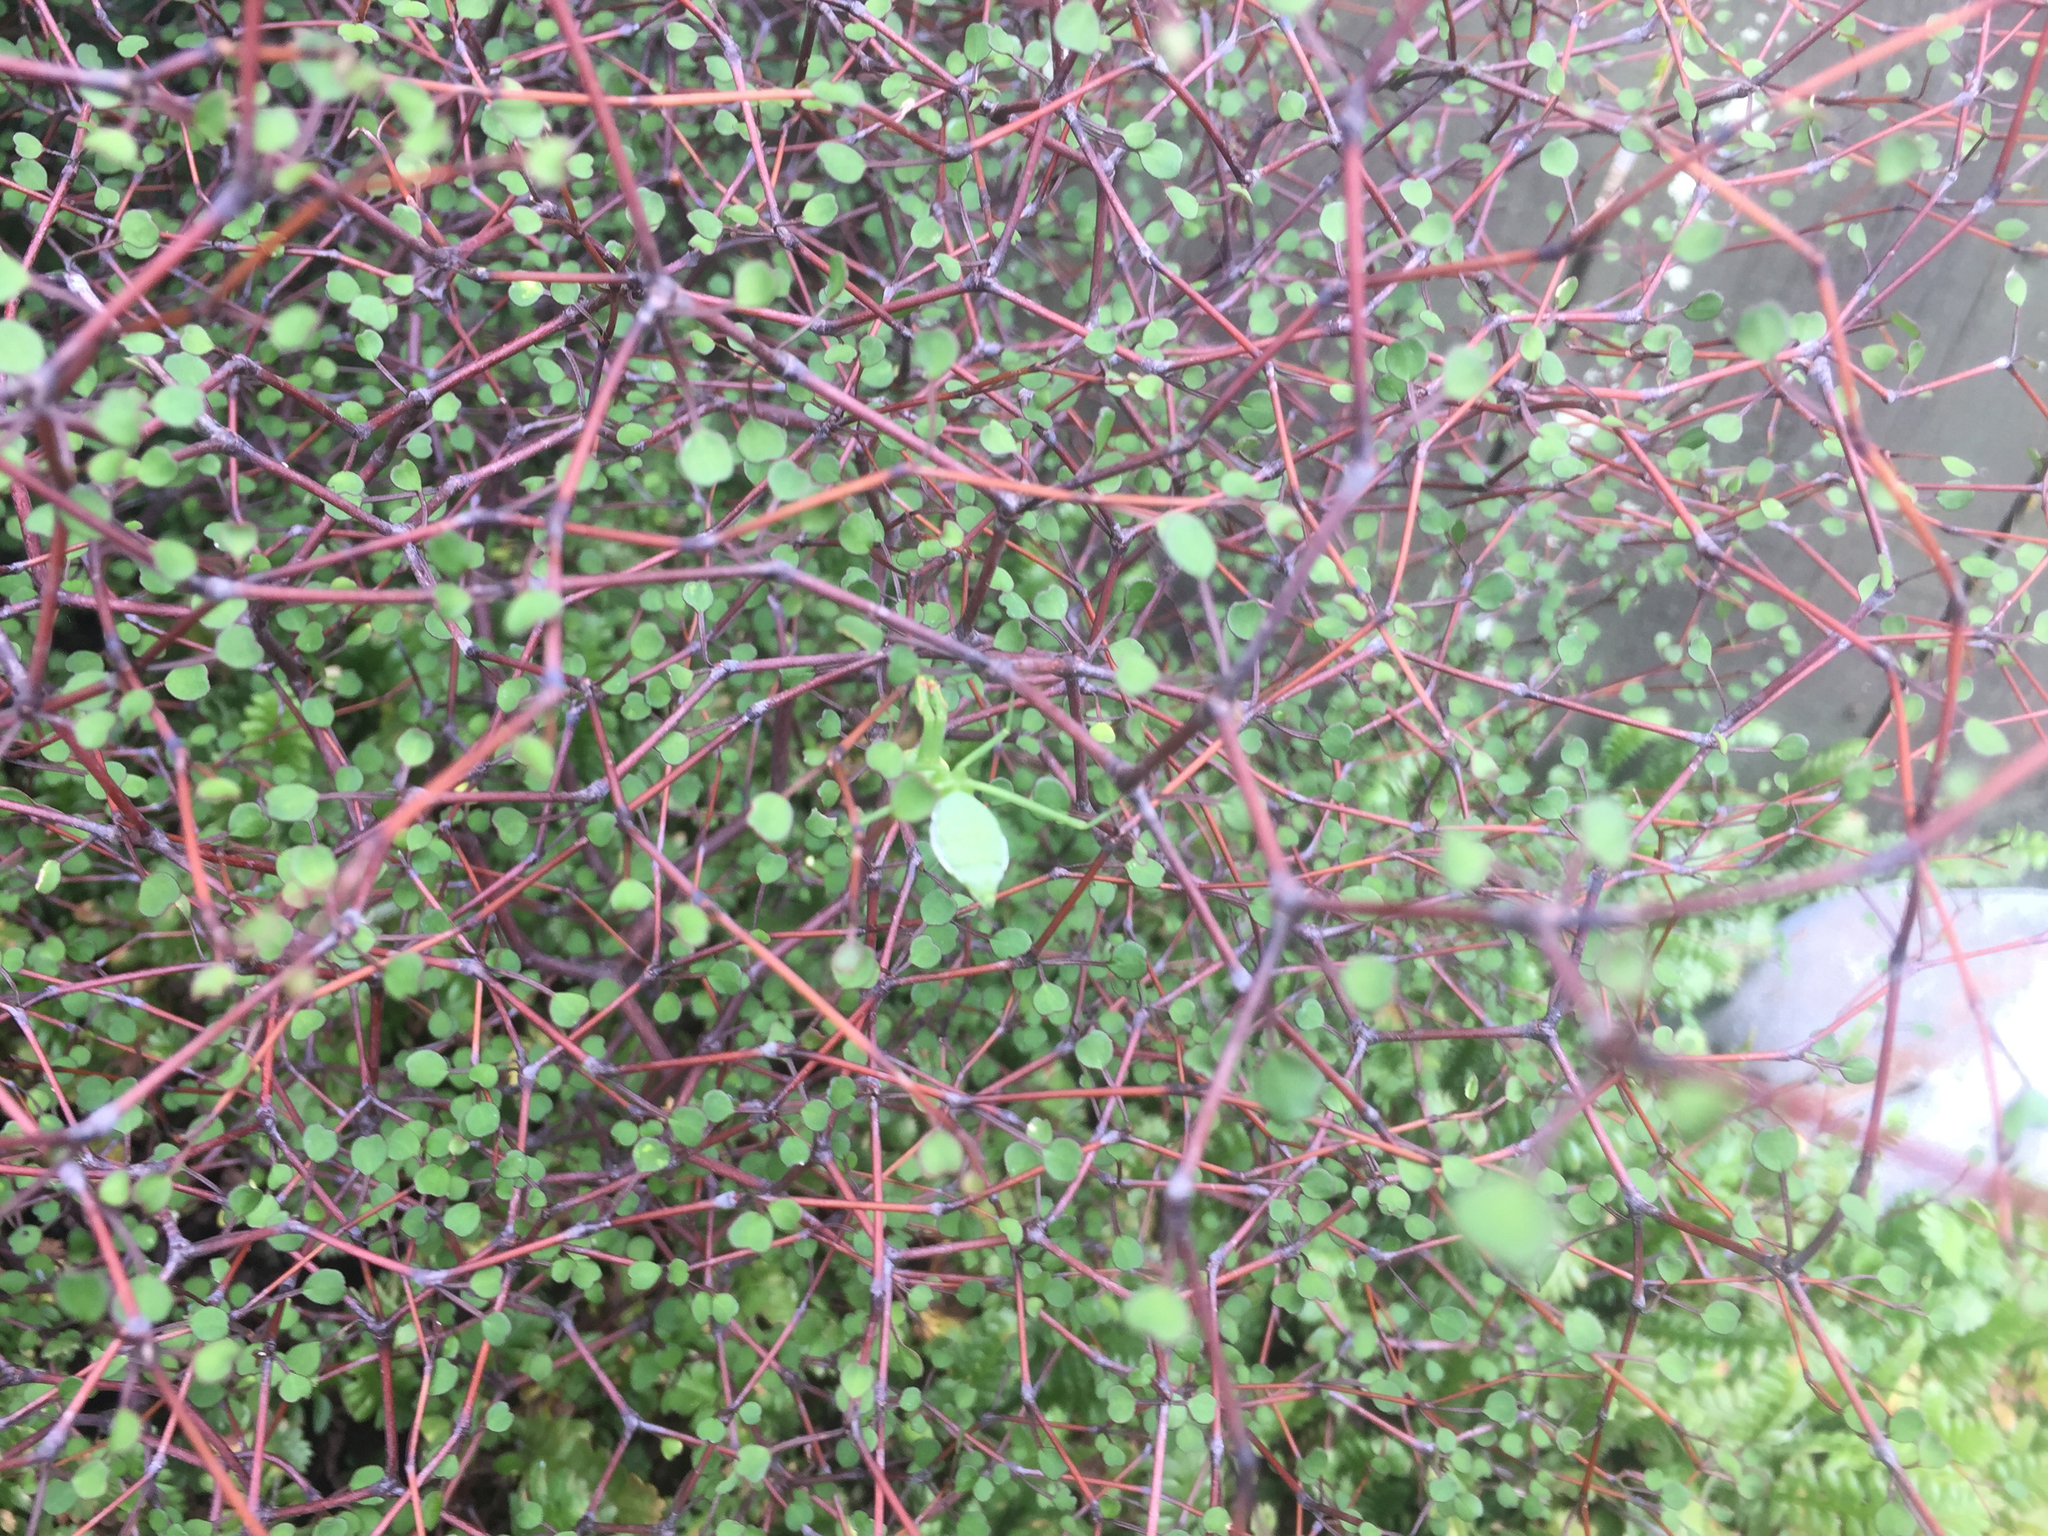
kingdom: Animalia
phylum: Arthropoda
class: Insecta
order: Mantodea
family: Miomantidae
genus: Miomantis
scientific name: Miomantis caffra
